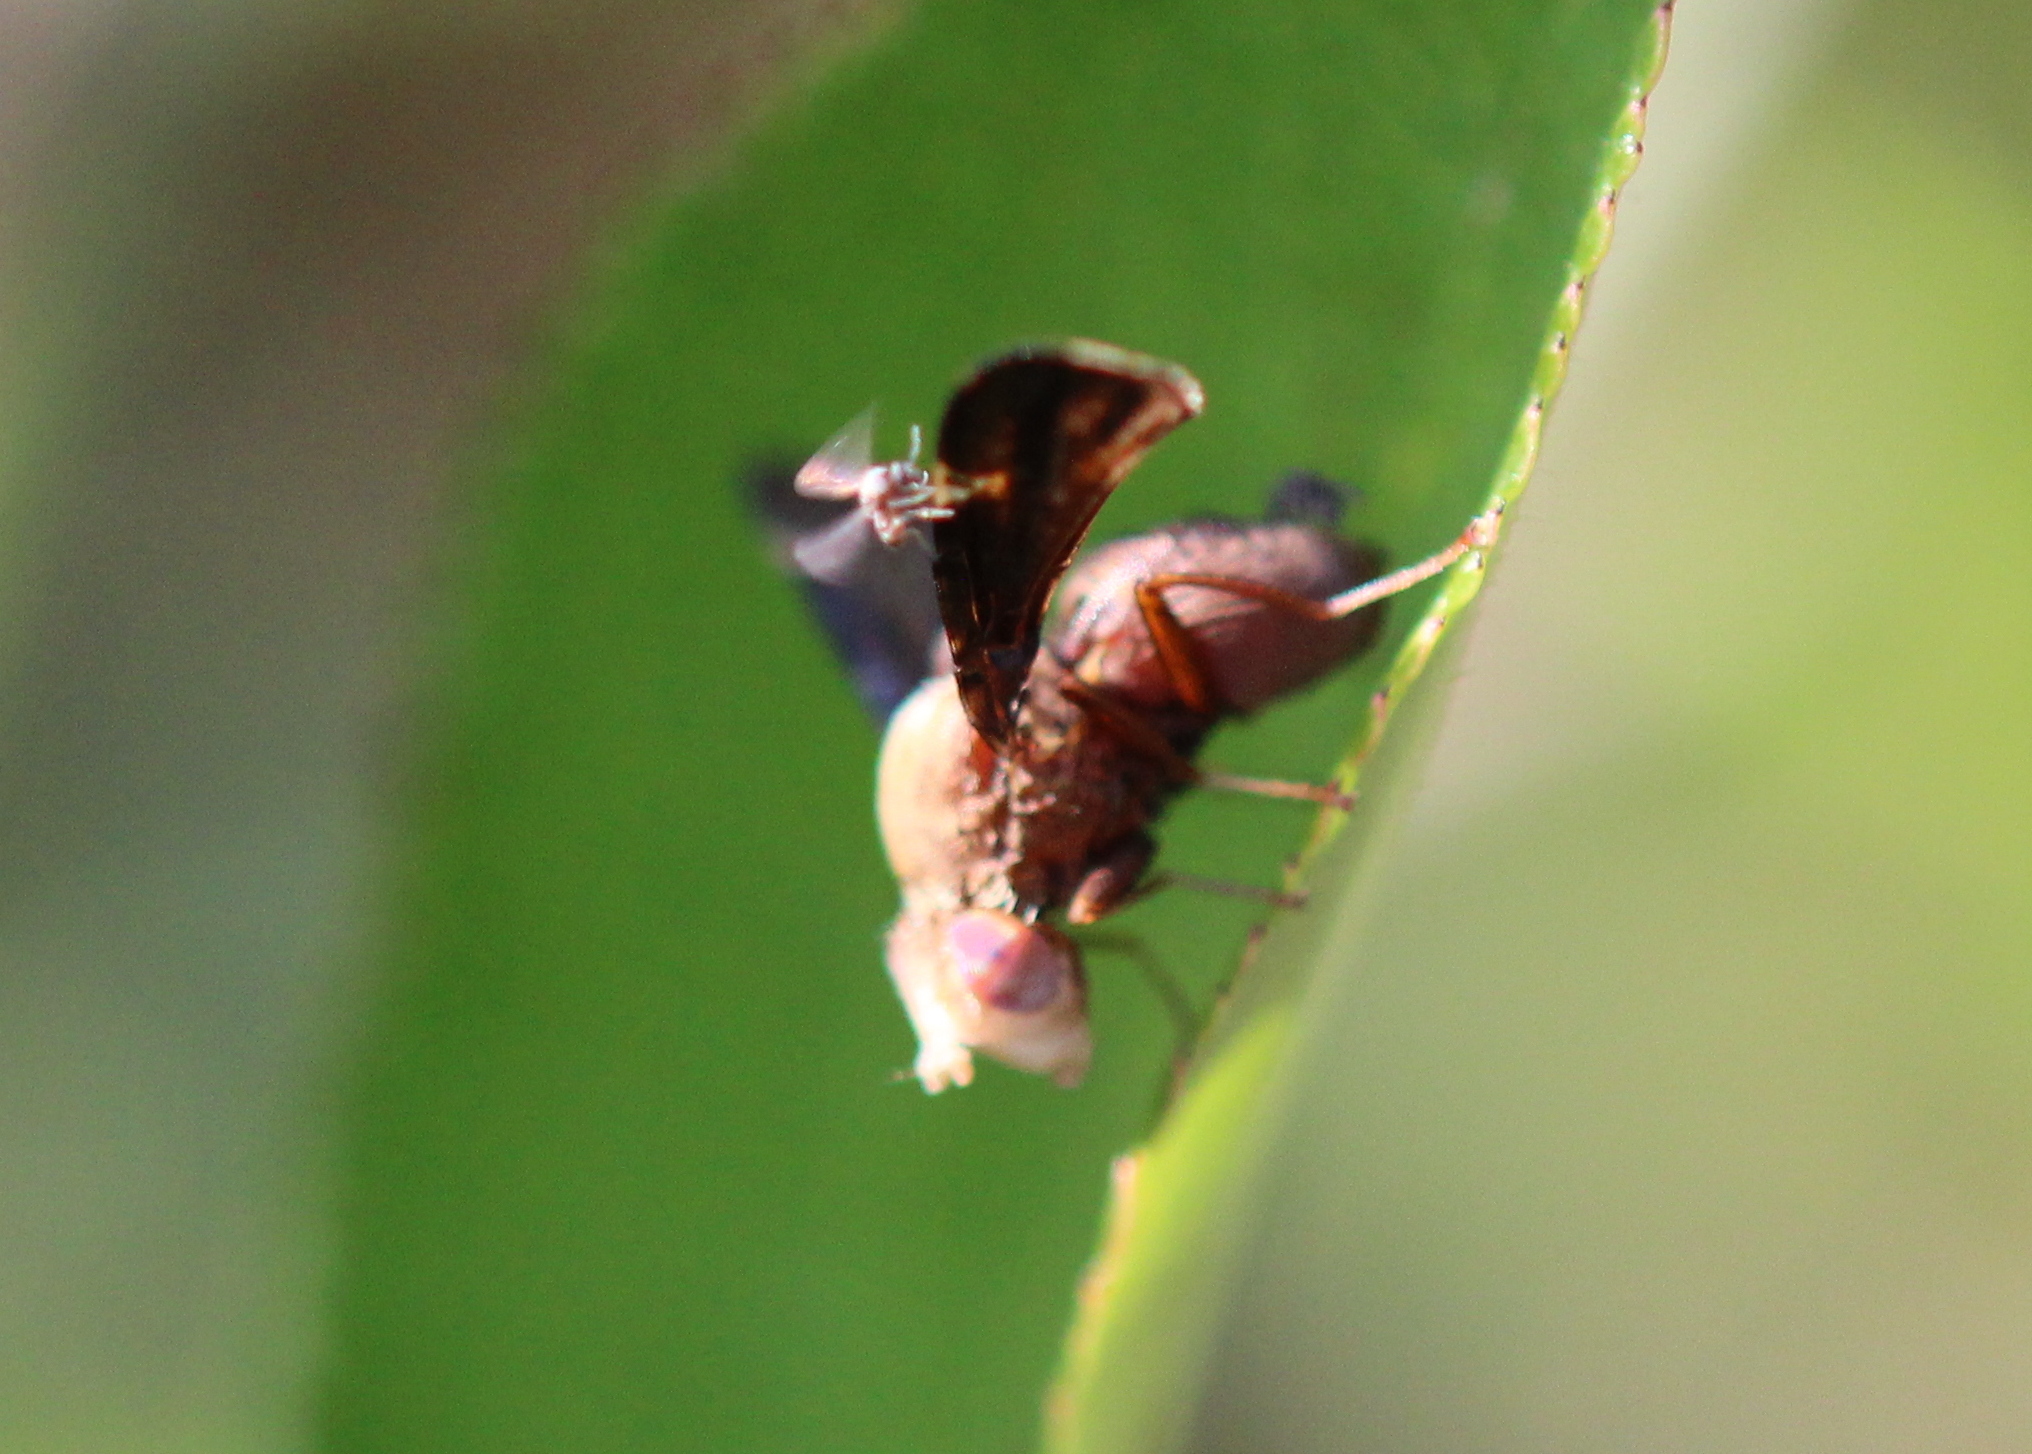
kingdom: Animalia
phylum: Arthropoda
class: Insecta
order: Diptera
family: Tephritidae
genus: Eurosta
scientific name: Eurosta comma
